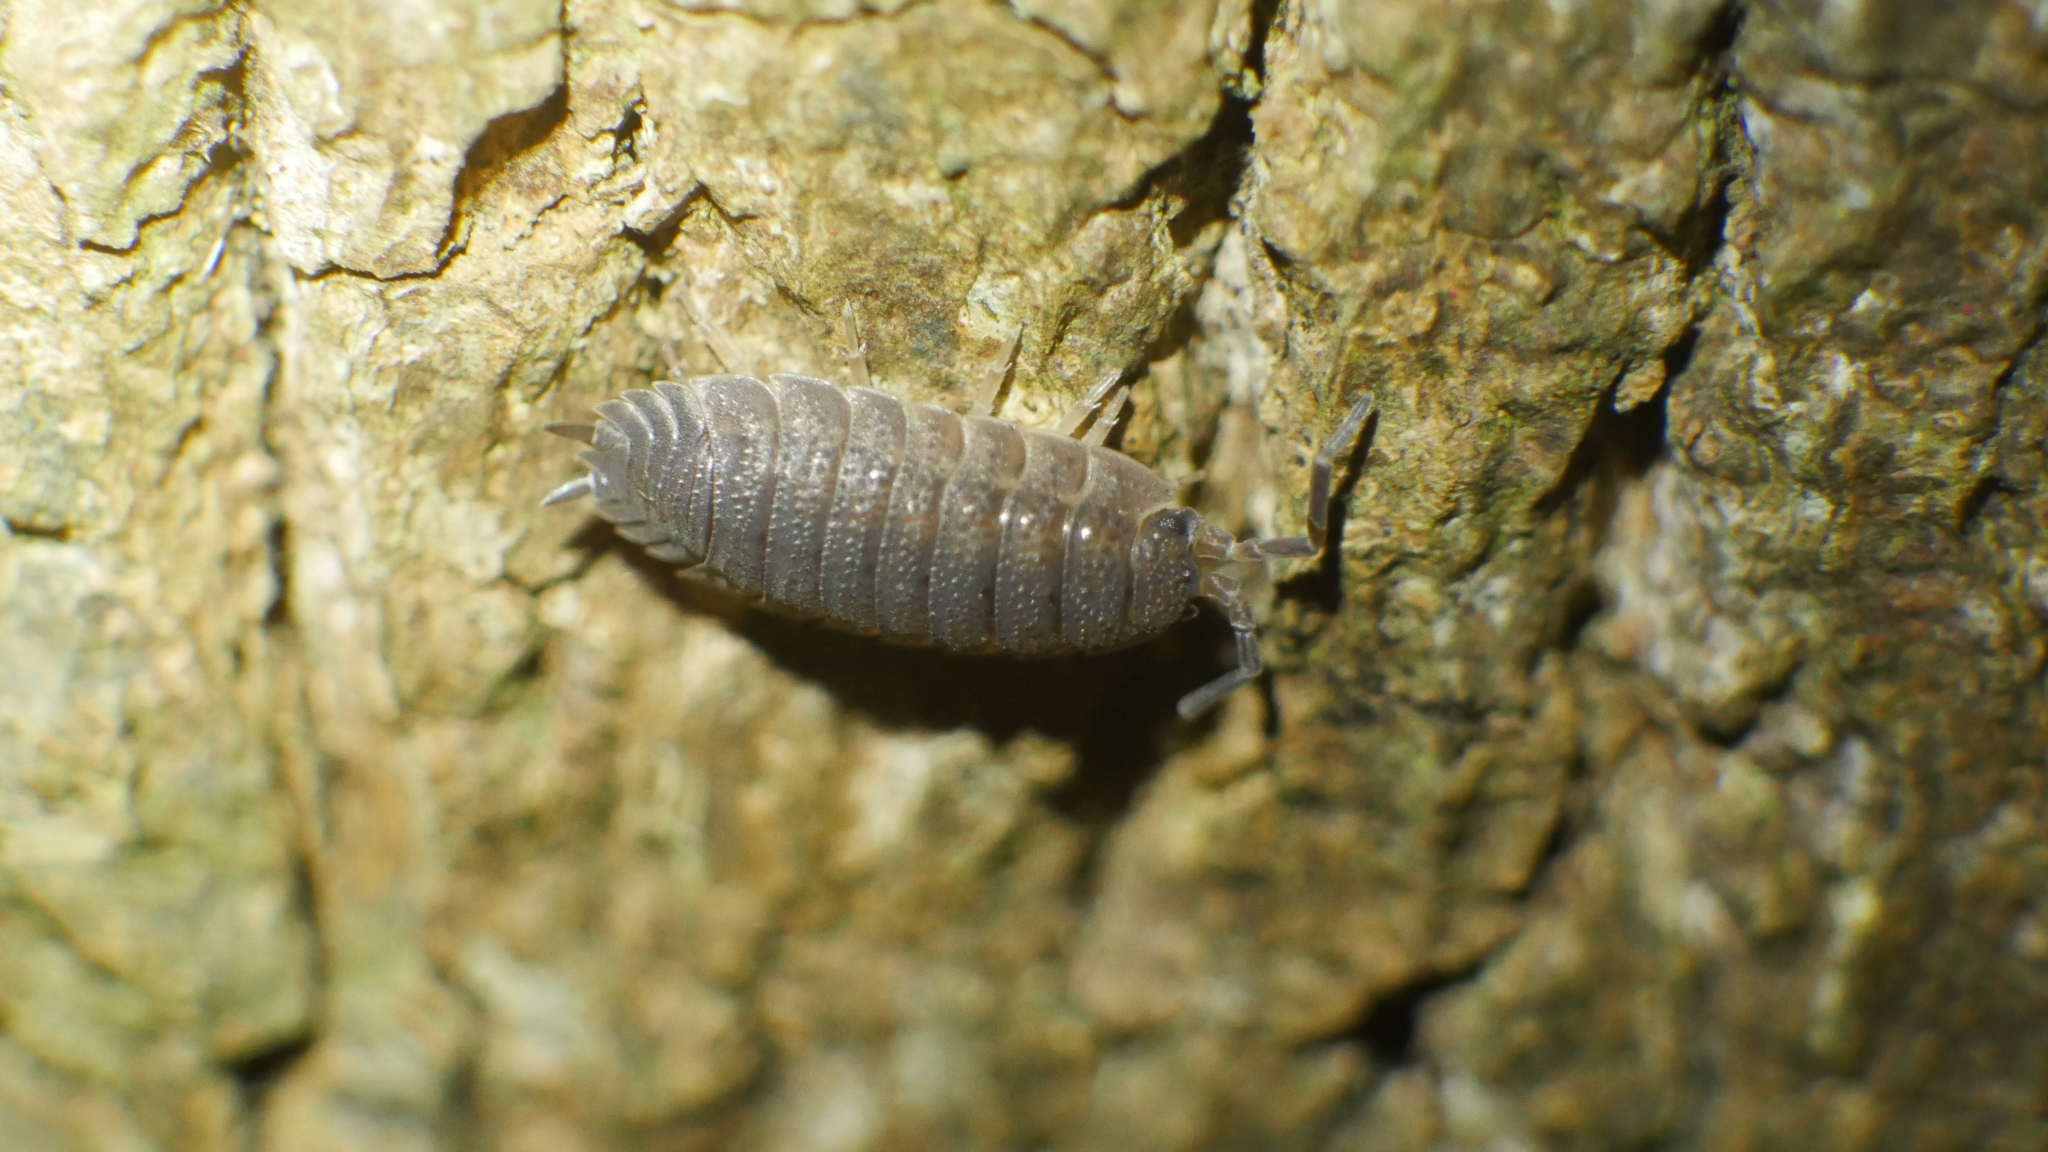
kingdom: Animalia
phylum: Arthropoda
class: Malacostraca
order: Isopoda
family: Porcellionidae
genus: Porcellio
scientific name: Porcellio scaber
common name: Common rough woodlouse
